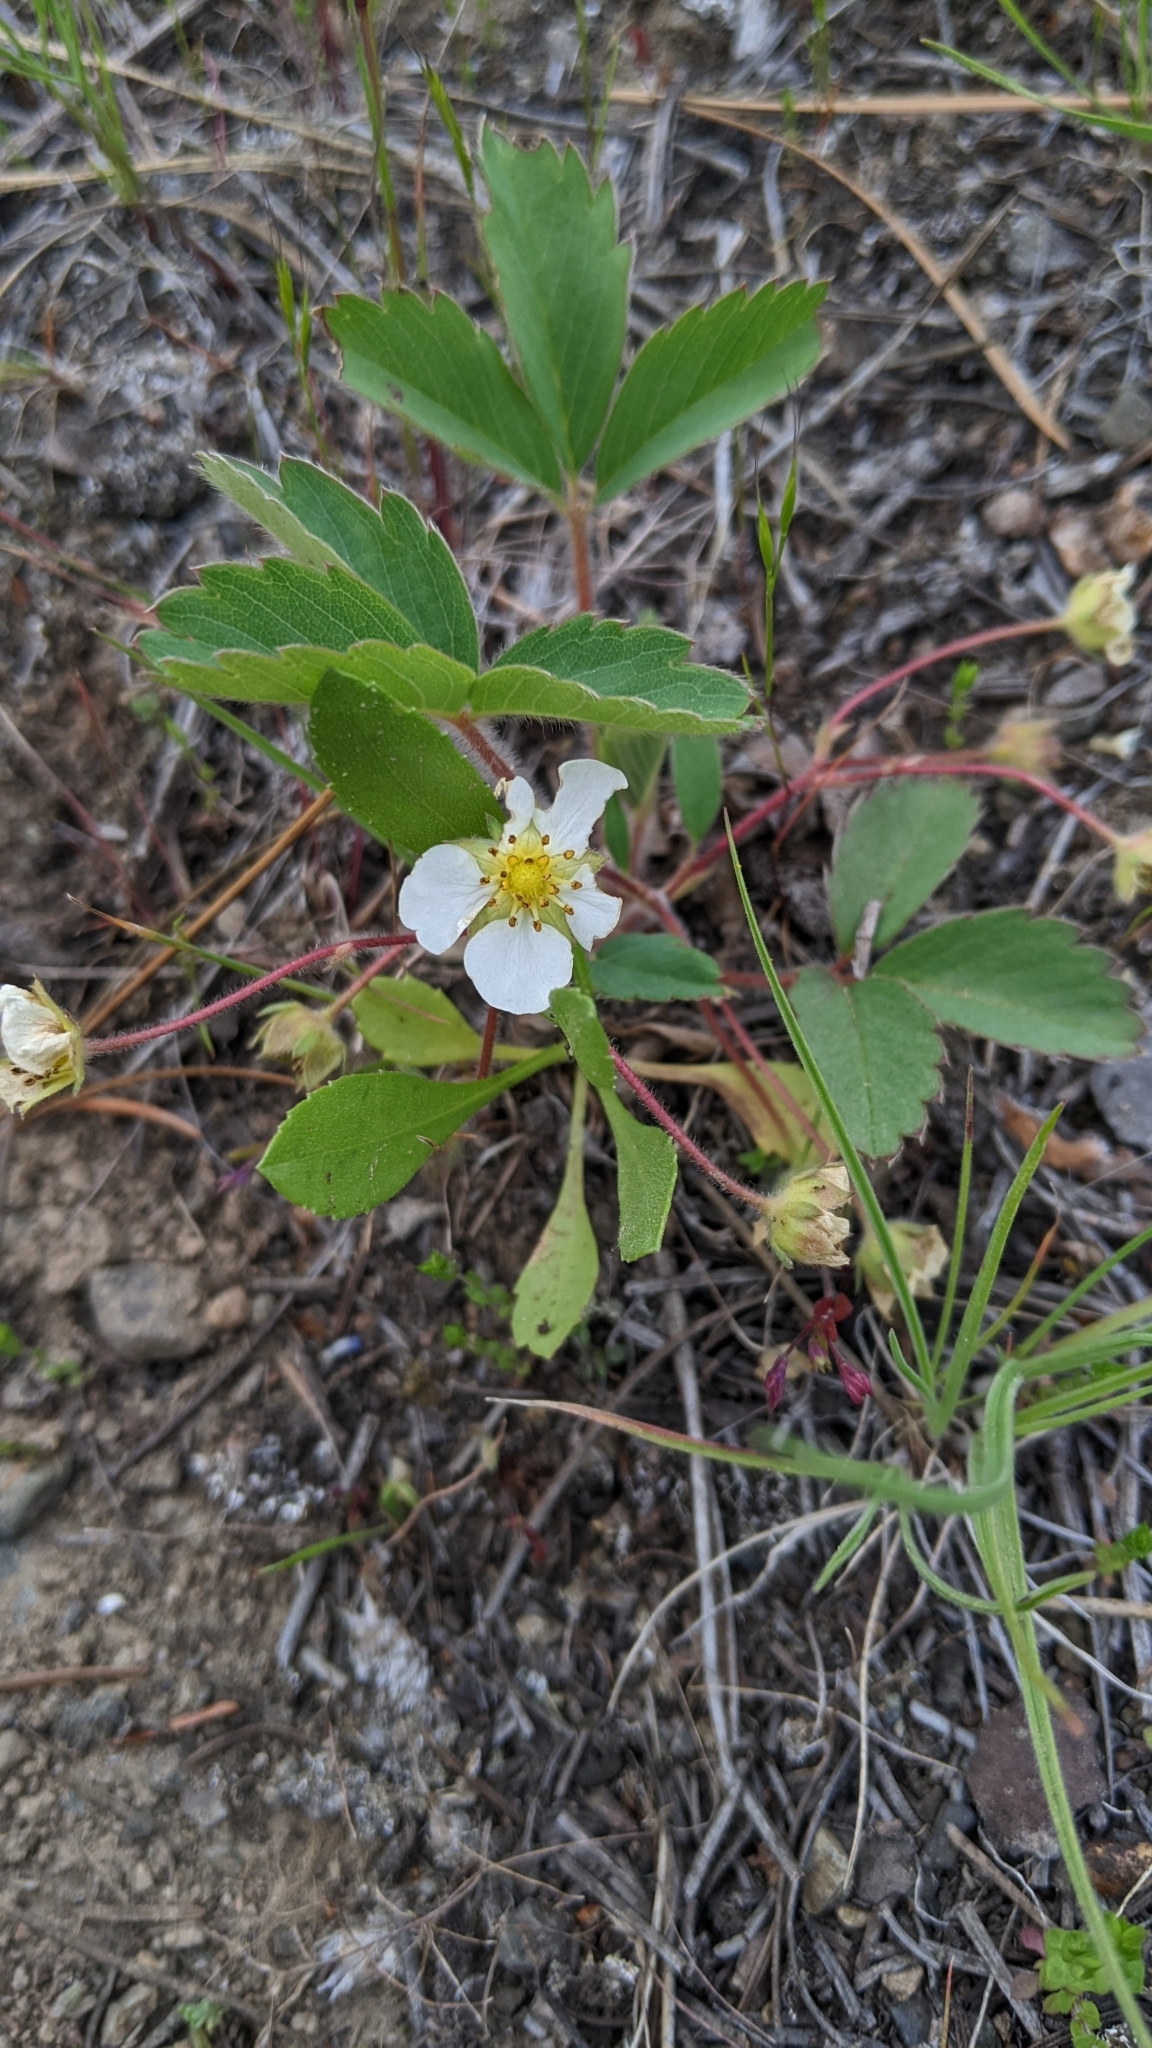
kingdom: Plantae
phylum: Tracheophyta
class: Magnoliopsida
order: Rosales
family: Rosaceae
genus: Fragaria
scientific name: Fragaria virginiana
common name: Thickleaved wild strawberry
